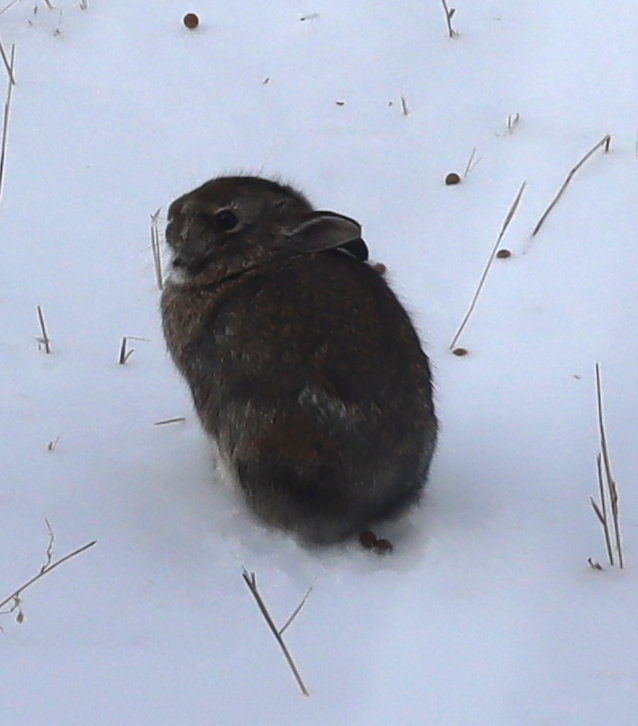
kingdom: Animalia
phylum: Chordata
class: Mammalia
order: Lagomorpha
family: Leporidae
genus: Sylvilagus
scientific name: Sylvilagus floridanus
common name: Eastern cottontail
